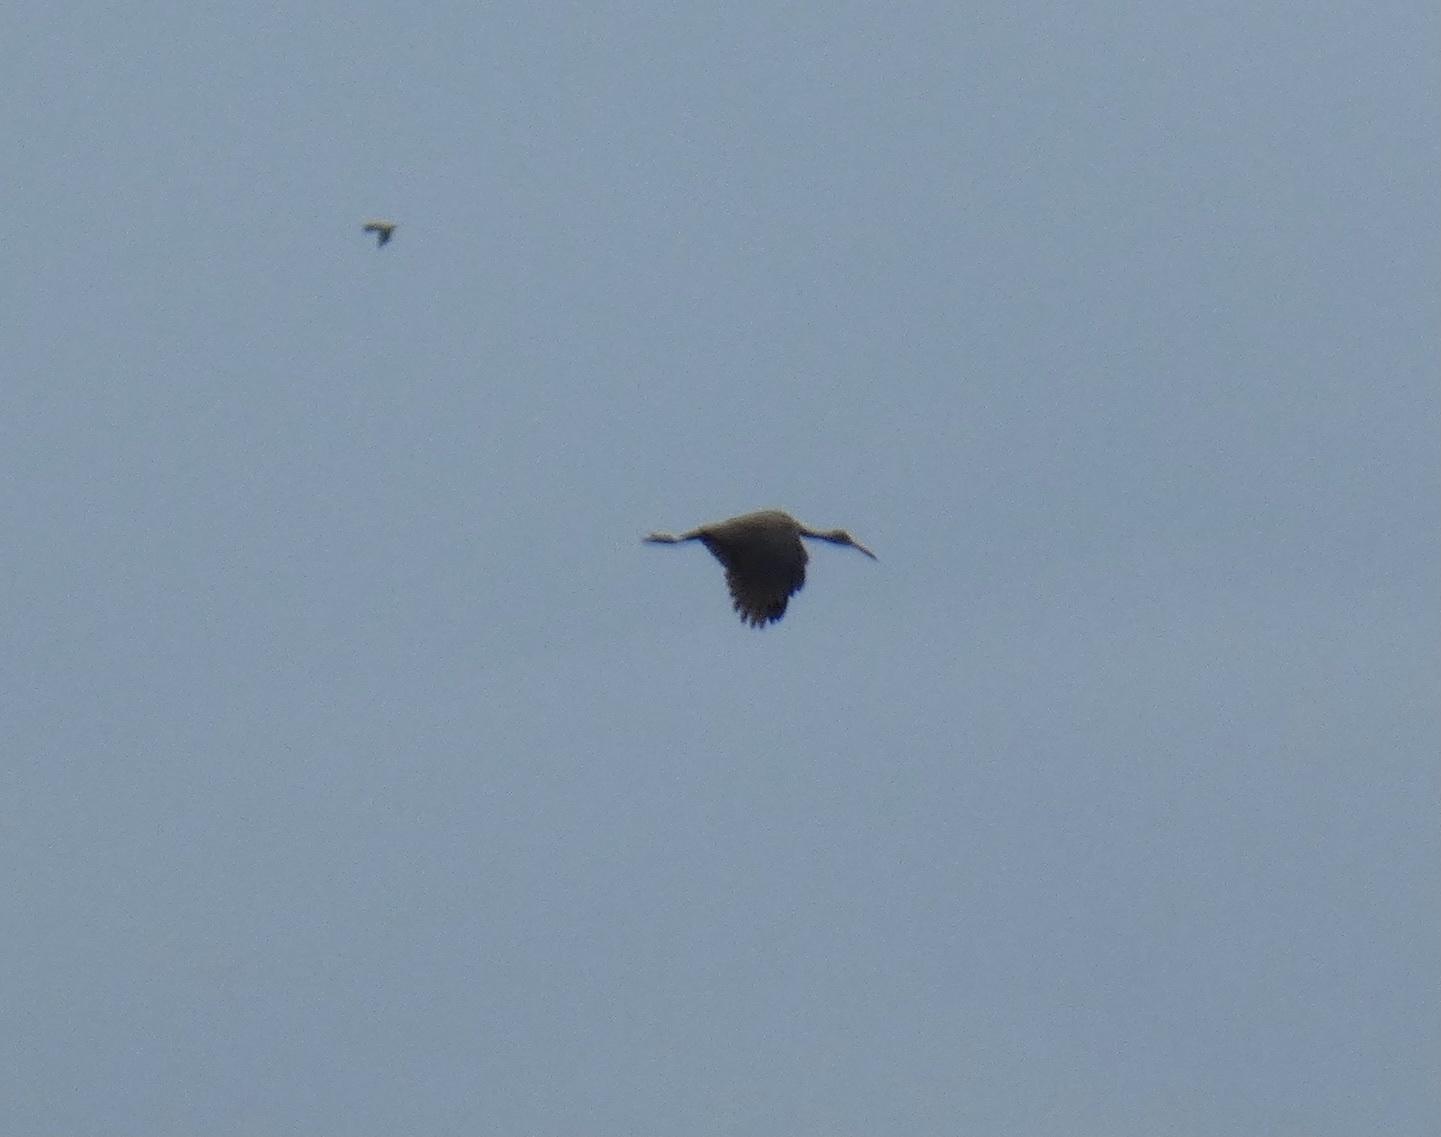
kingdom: Animalia
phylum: Chordata
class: Aves
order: Gruiformes
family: Aramidae
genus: Aramus
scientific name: Aramus guarauna
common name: Limpkin
